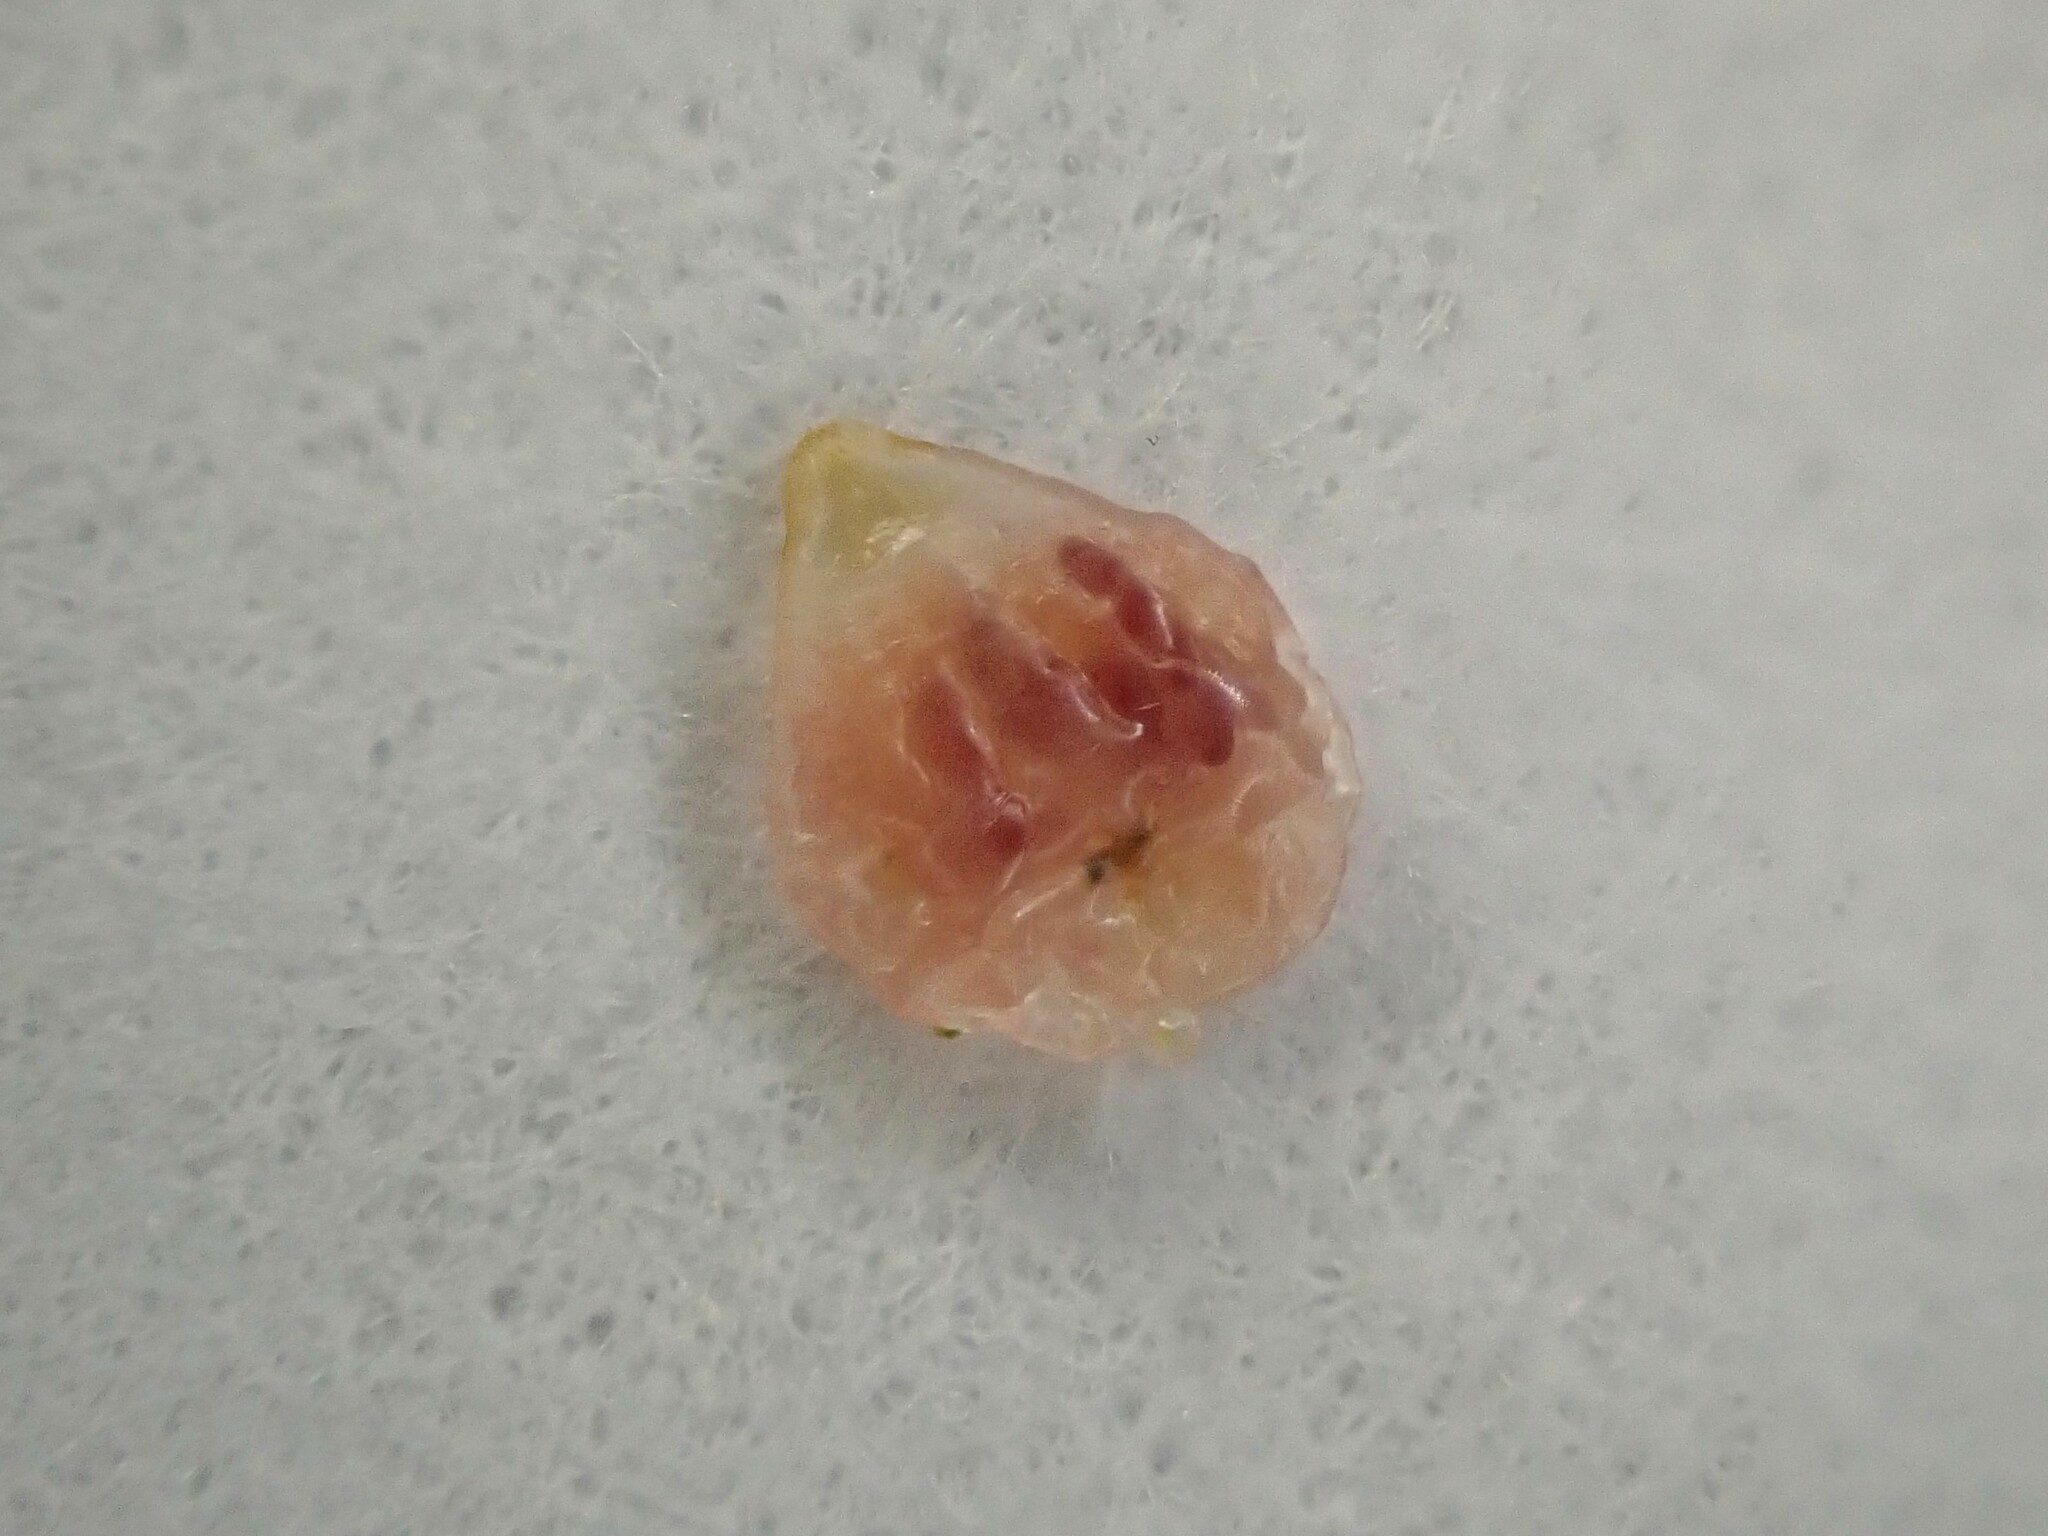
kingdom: Animalia
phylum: Arthropoda
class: Insecta
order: Hemiptera
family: Diaspididae
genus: Lindingaspis
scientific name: Lindingaspis rossi
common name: Araucaria black scale
